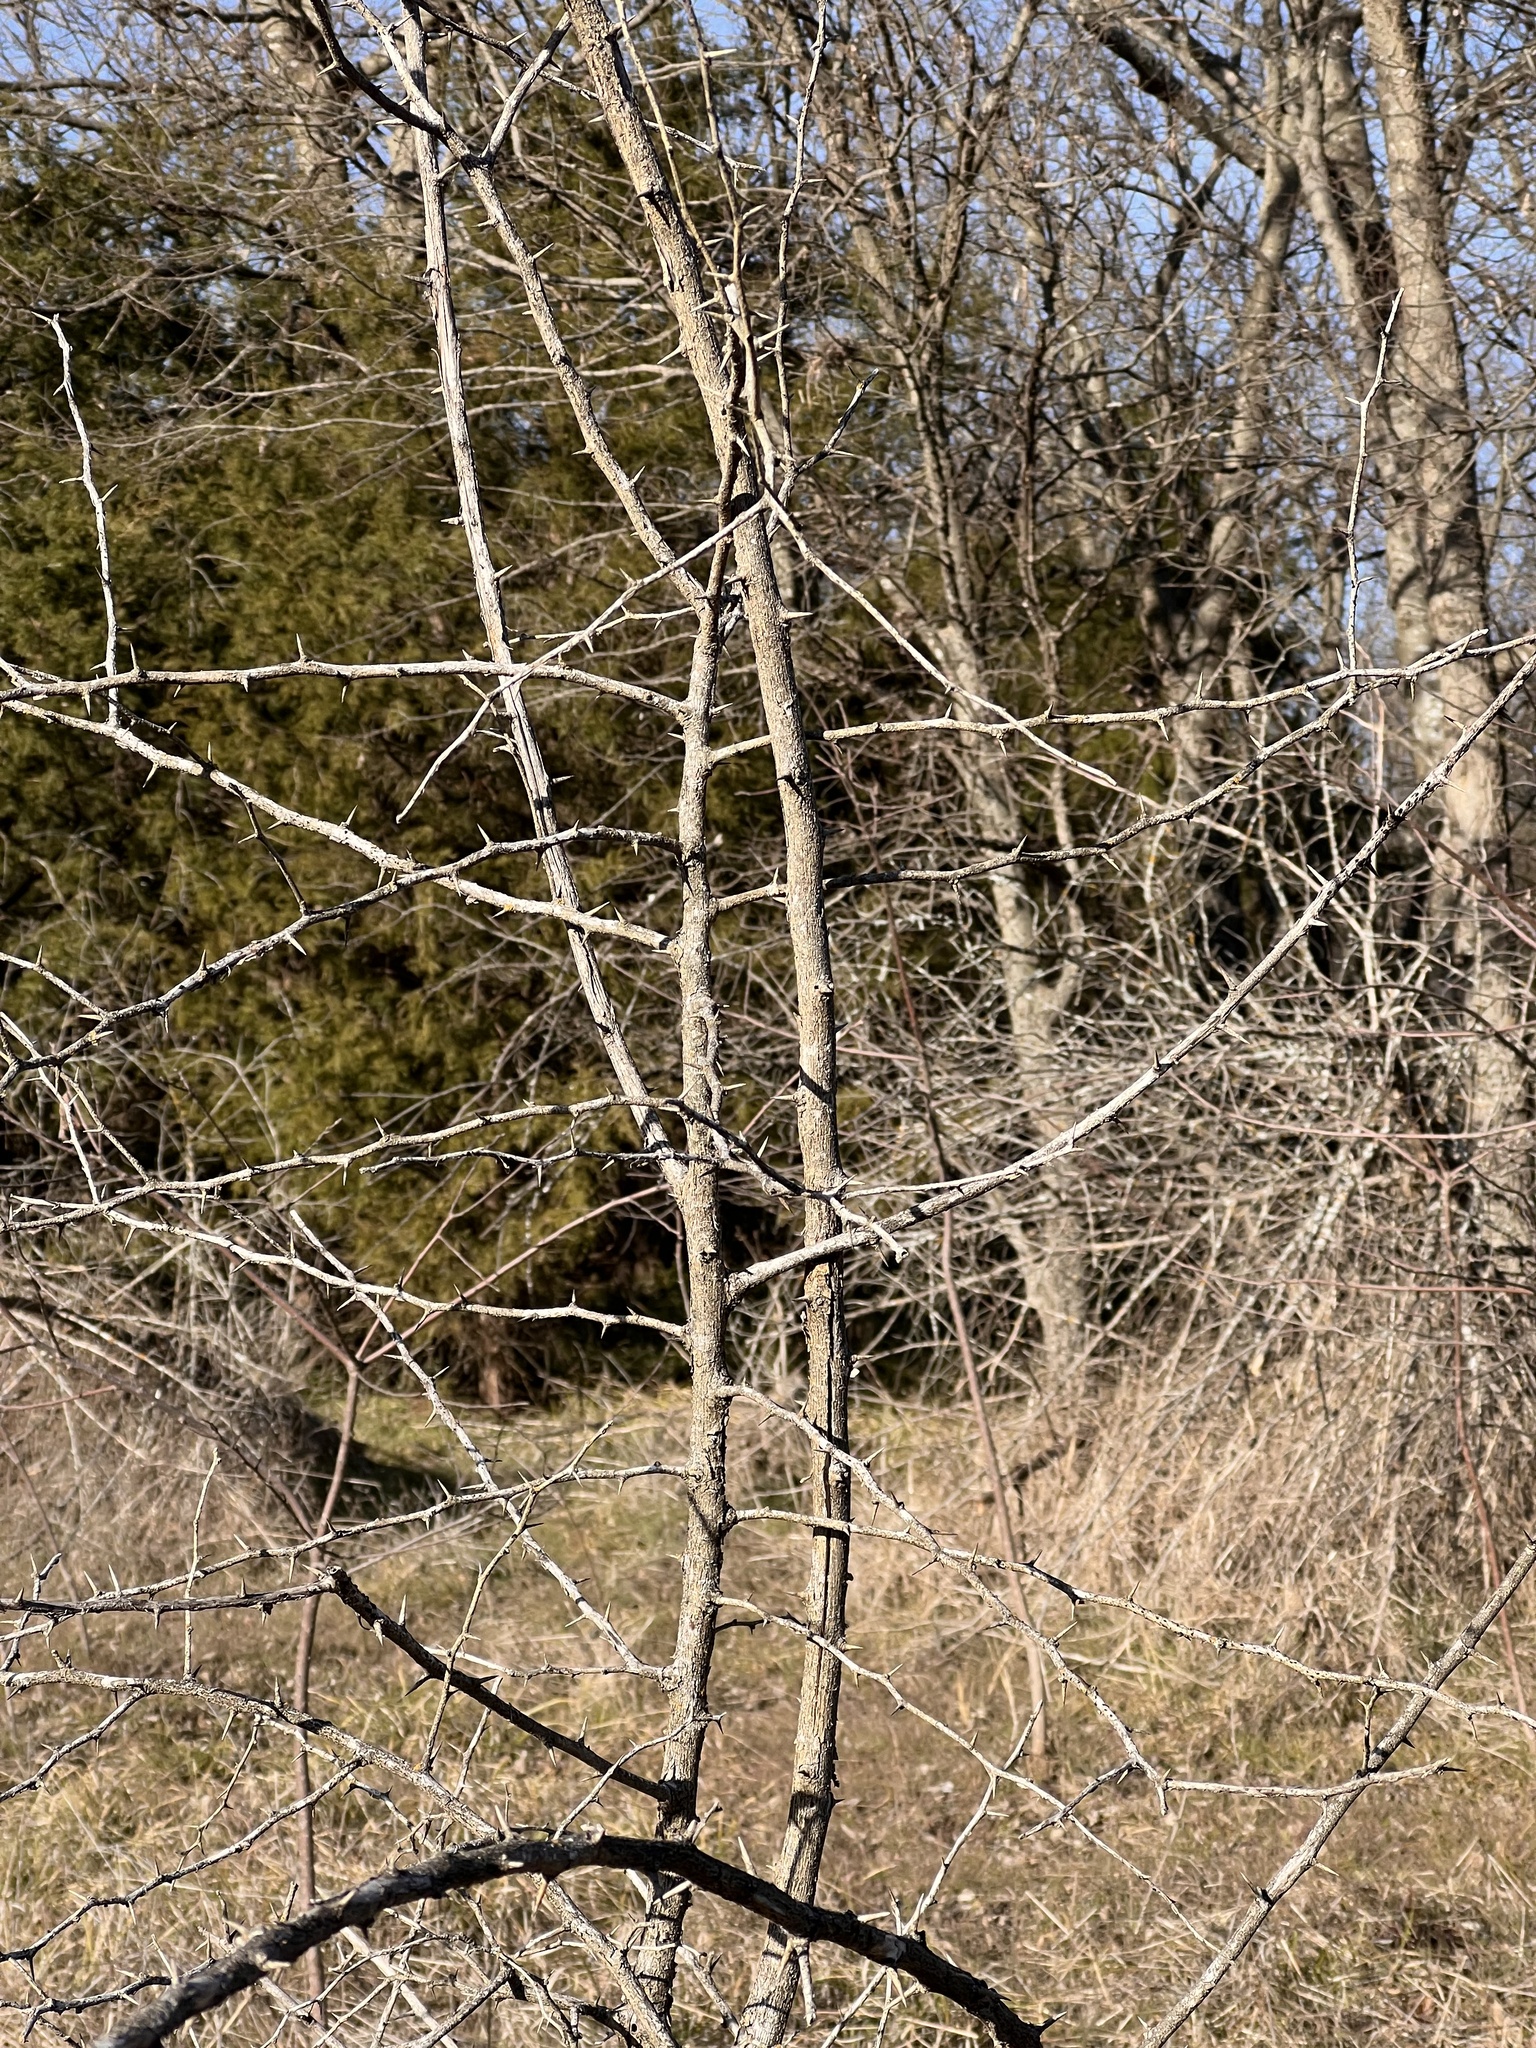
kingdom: Plantae
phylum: Tracheophyta
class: Magnoliopsida
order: Fabales
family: Fabaceae
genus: Gleditsia
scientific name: Gleditsia triacanthos
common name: Common honeylocust
